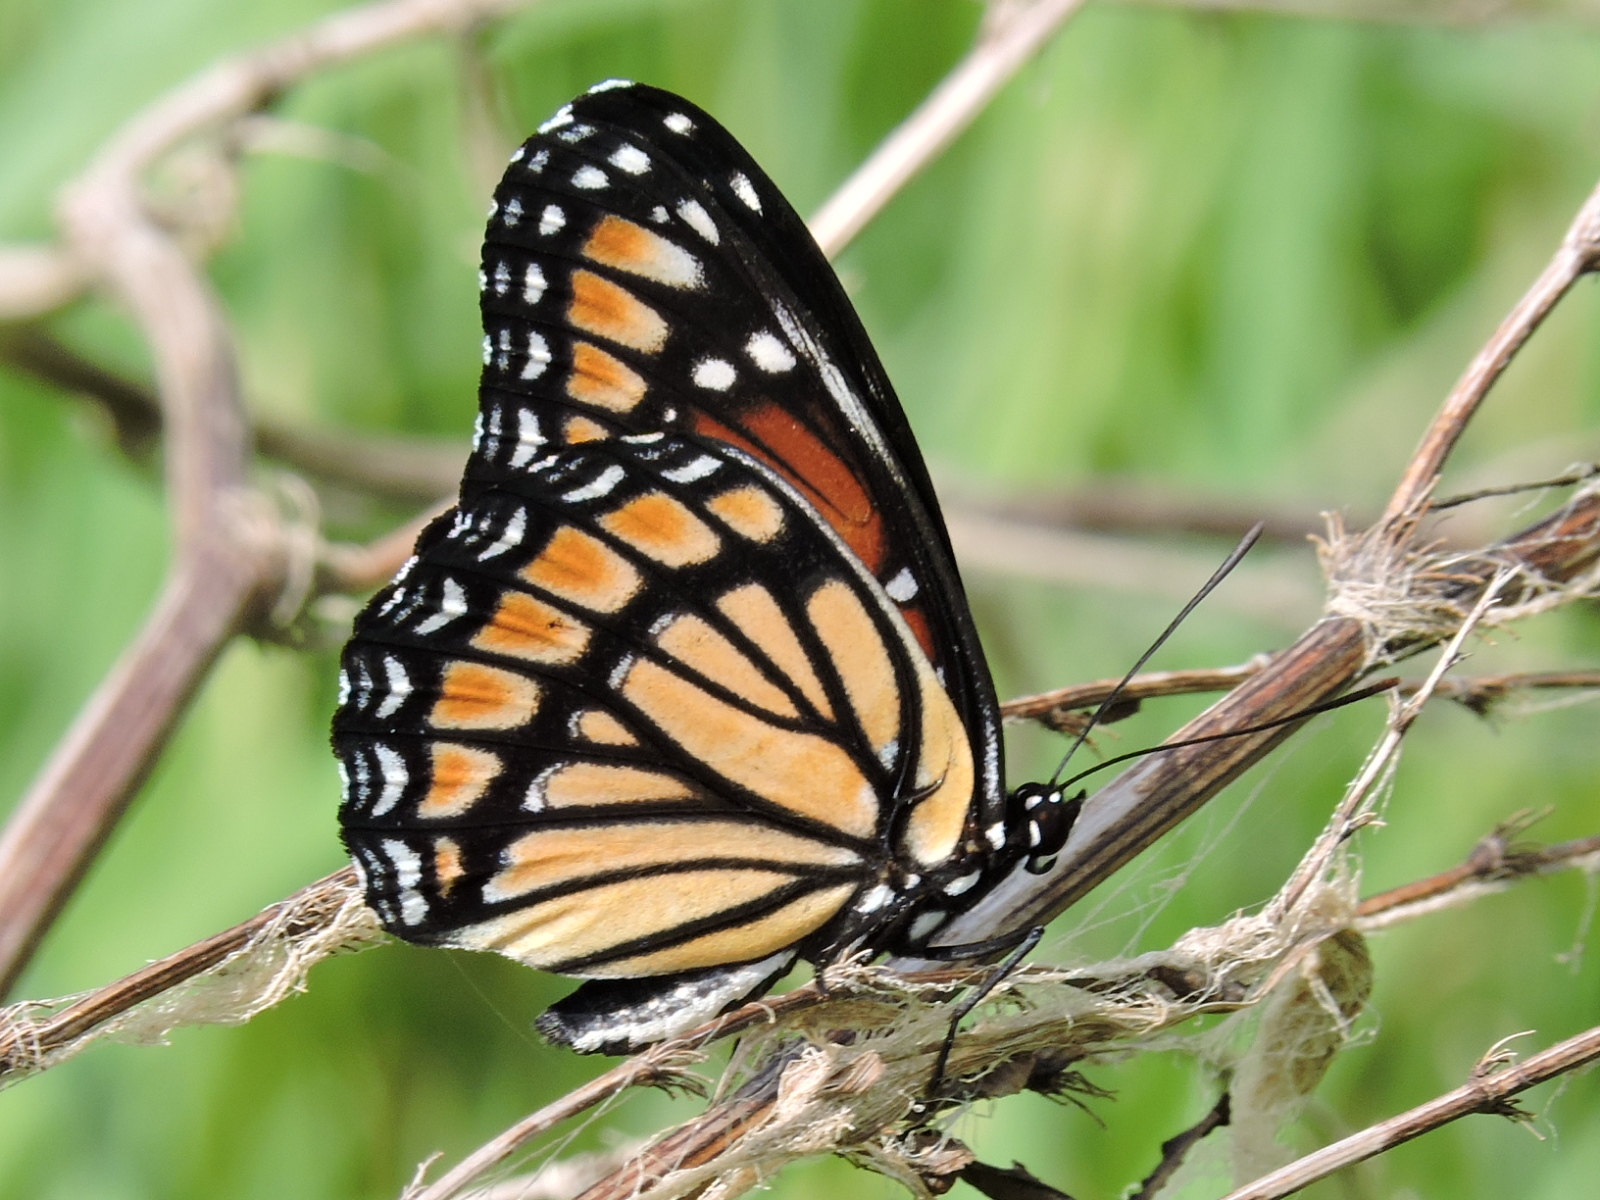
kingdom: Animalia
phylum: Arthropoda
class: Insecta
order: Lepidoptera
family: Nymphalidae
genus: Limenitis
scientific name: Limenitis archippus
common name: Viceroy
